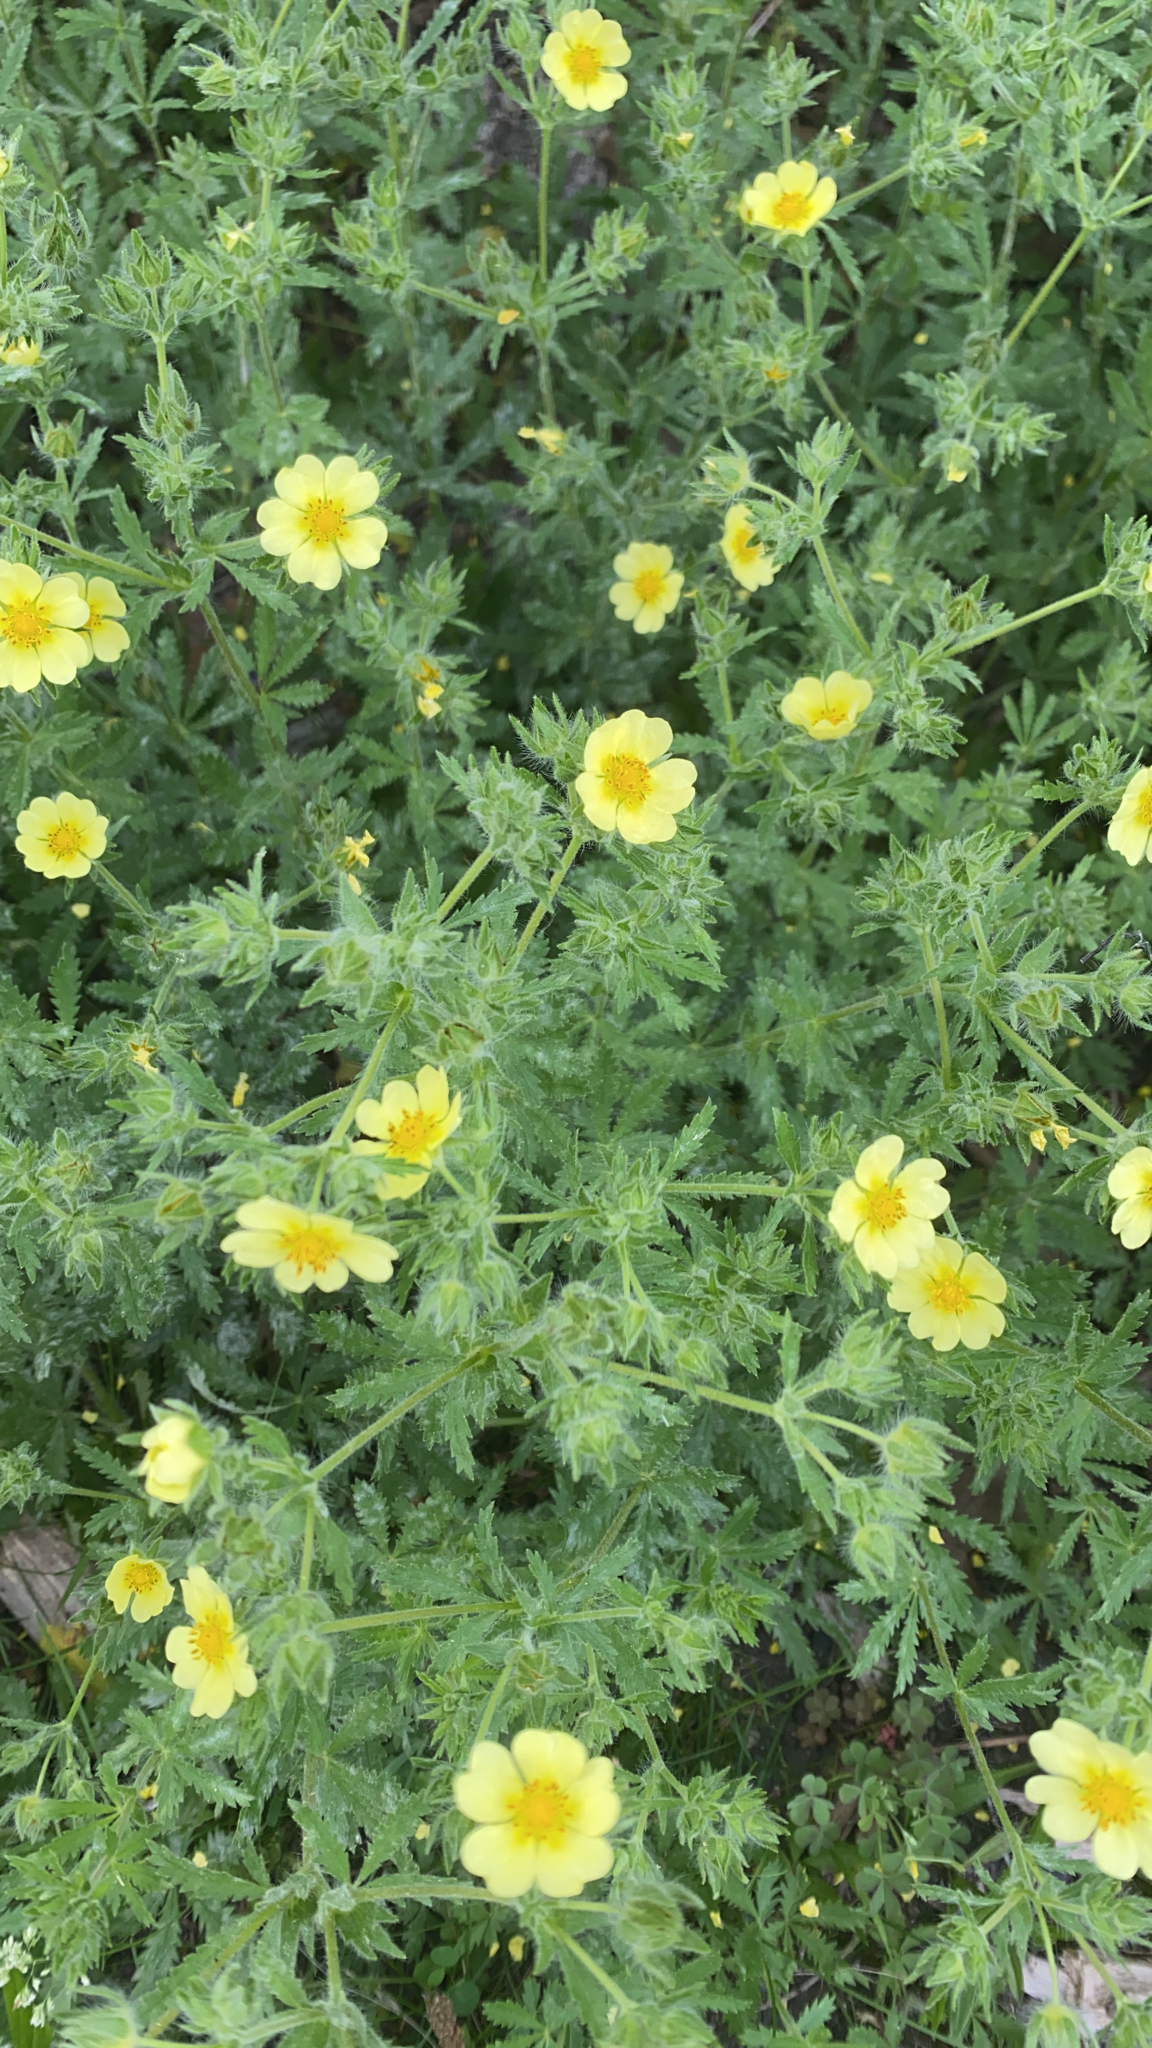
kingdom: Plantae
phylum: Tracheophyta
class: Magnoliopsida
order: Rosales
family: Rosaceae
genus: Potentilla
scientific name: Potentilla recta
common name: Sulphur cinquefoil
